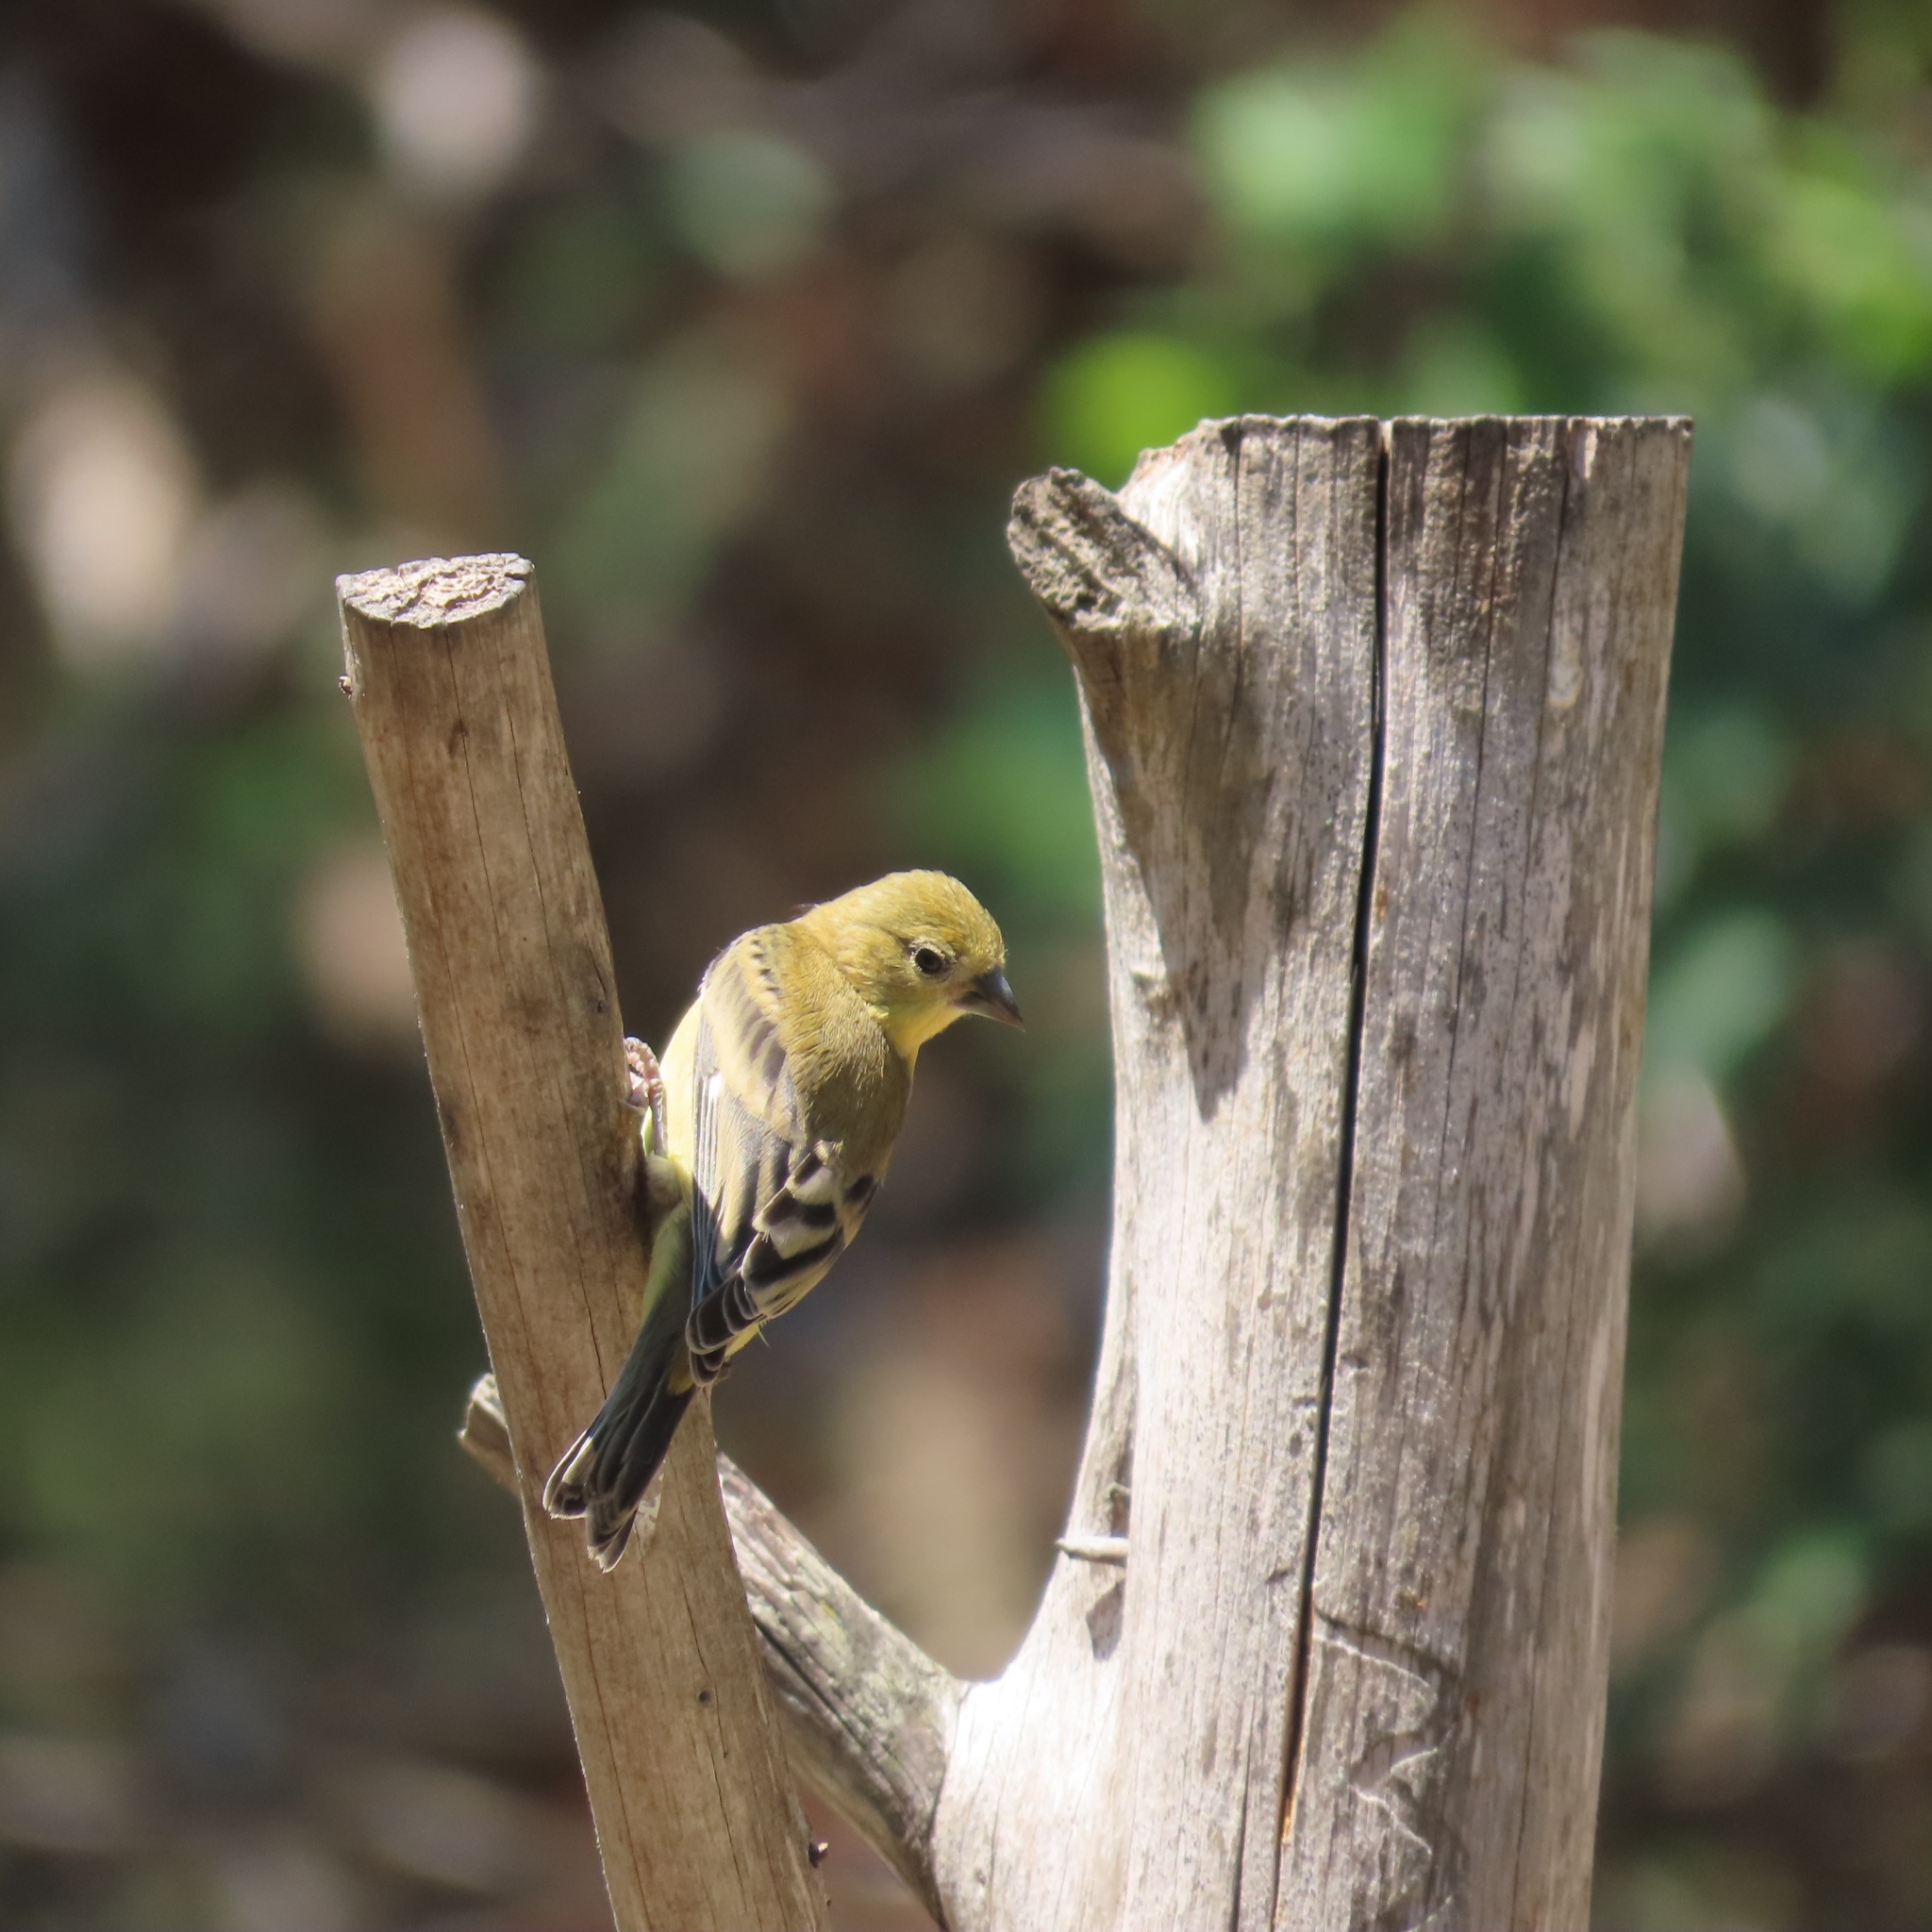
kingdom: Animalia
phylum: Chordata
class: Aves
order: Passeriformes
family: Fringillidae
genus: Spinus
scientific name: Spinus psaltria
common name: Lesser goldfinch
